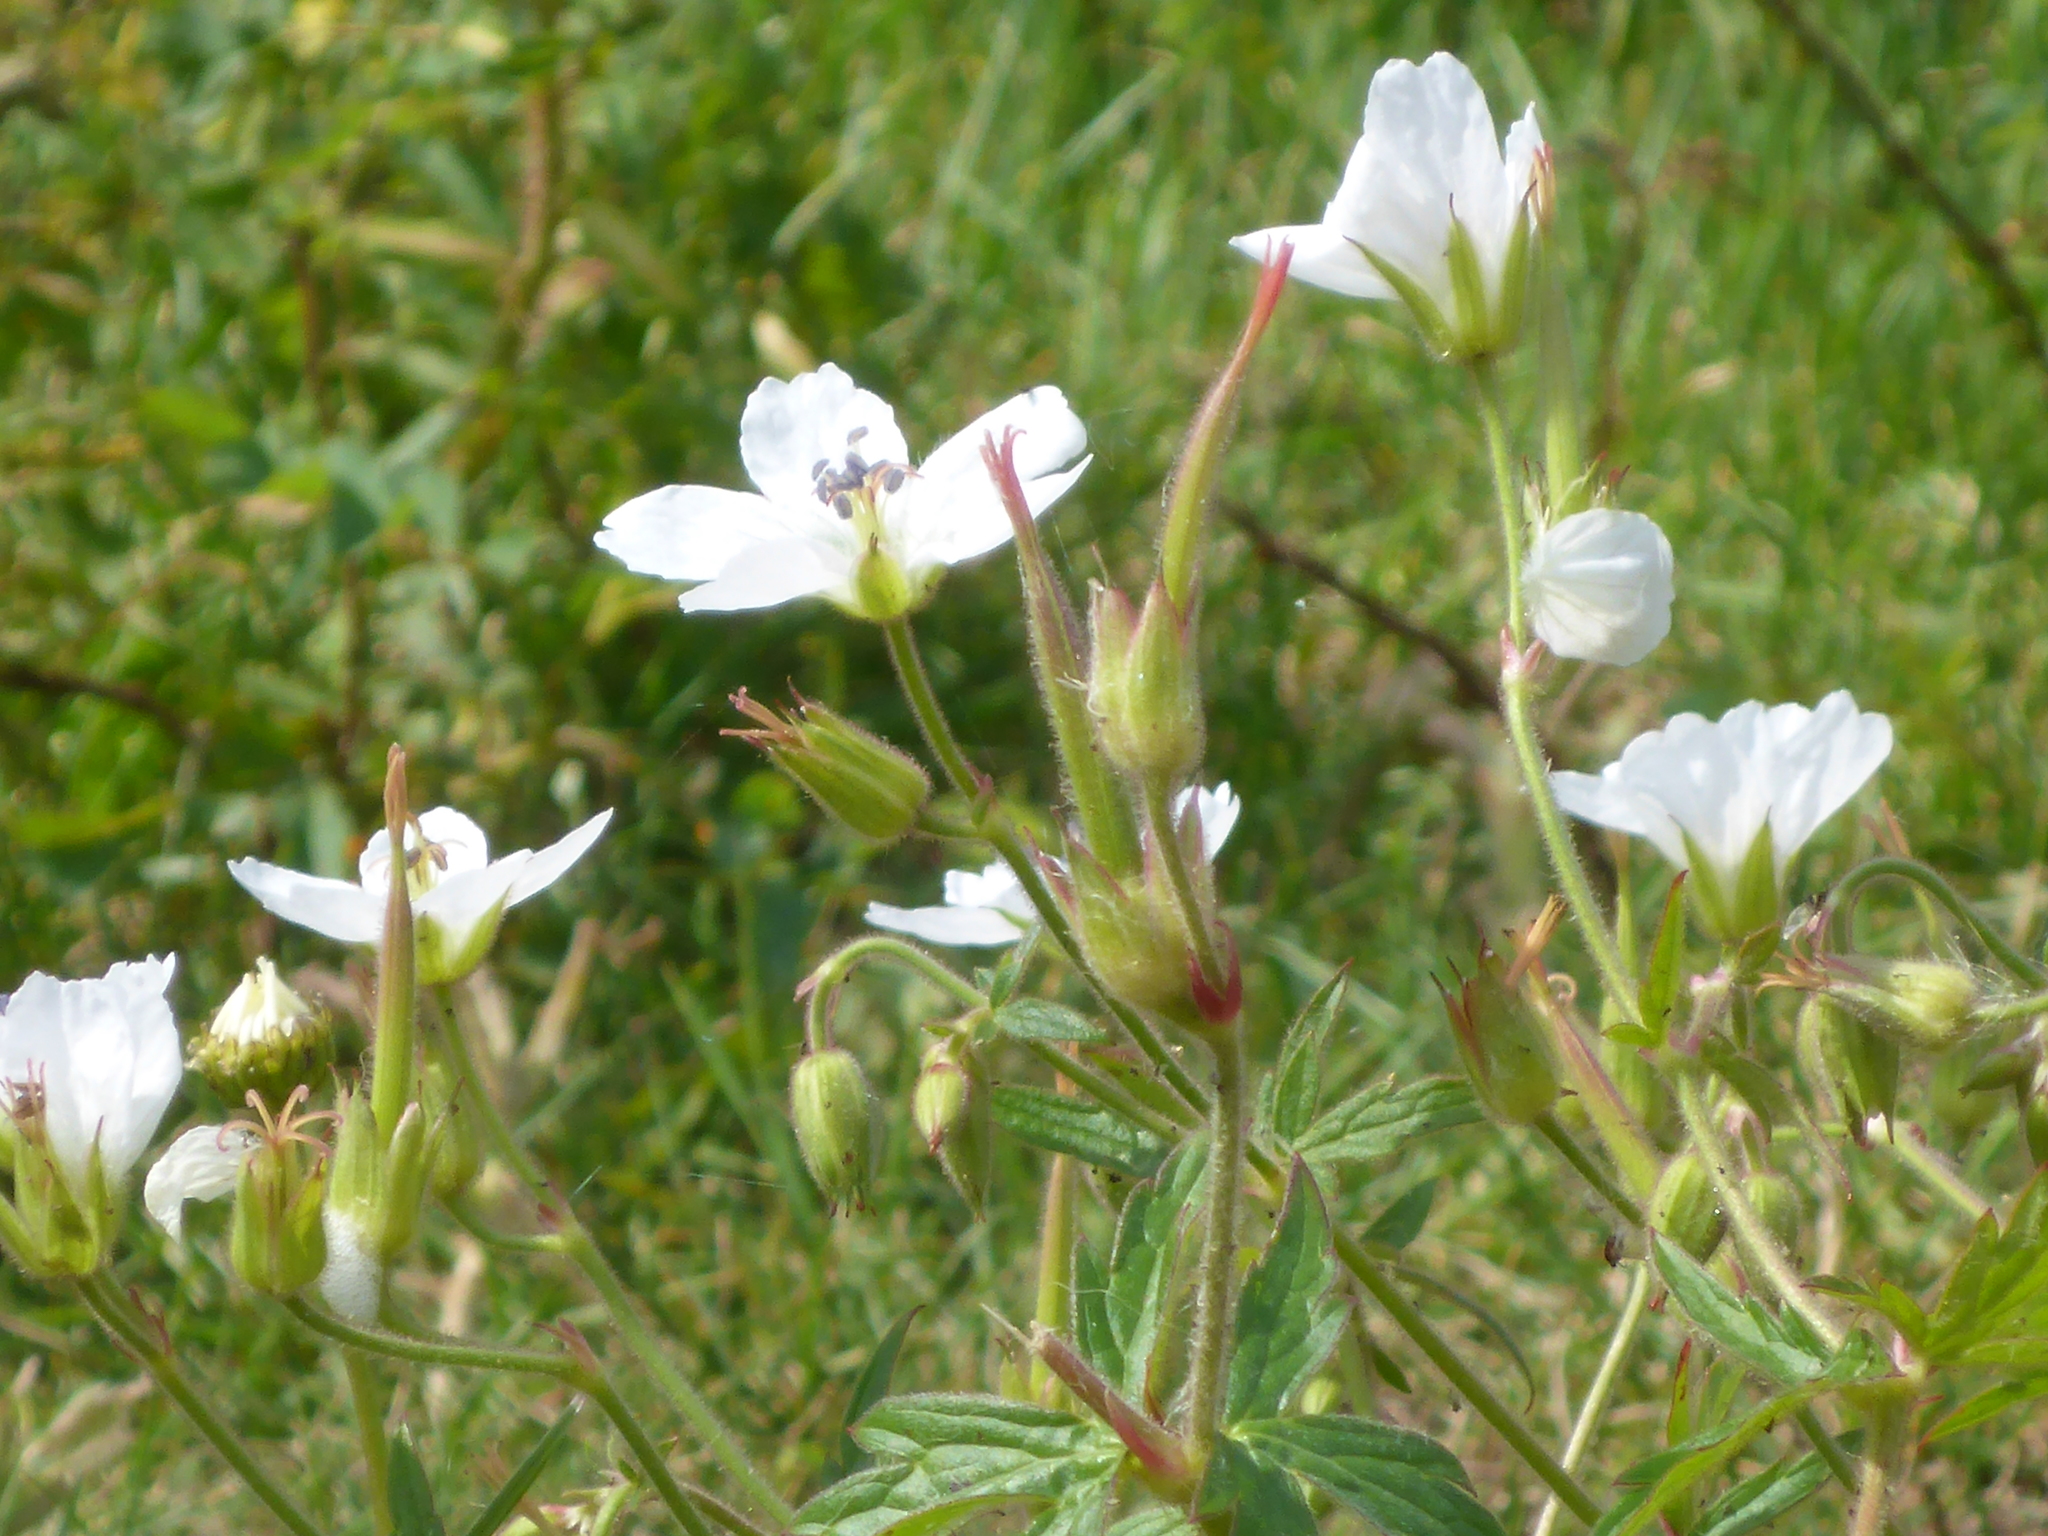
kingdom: Plantae
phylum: Tracheophyta
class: Magnoliopsida
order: Geraniales
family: Geraniaceae
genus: Geranium
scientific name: Geranium richardsonii
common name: Richardson's crane's-bill
